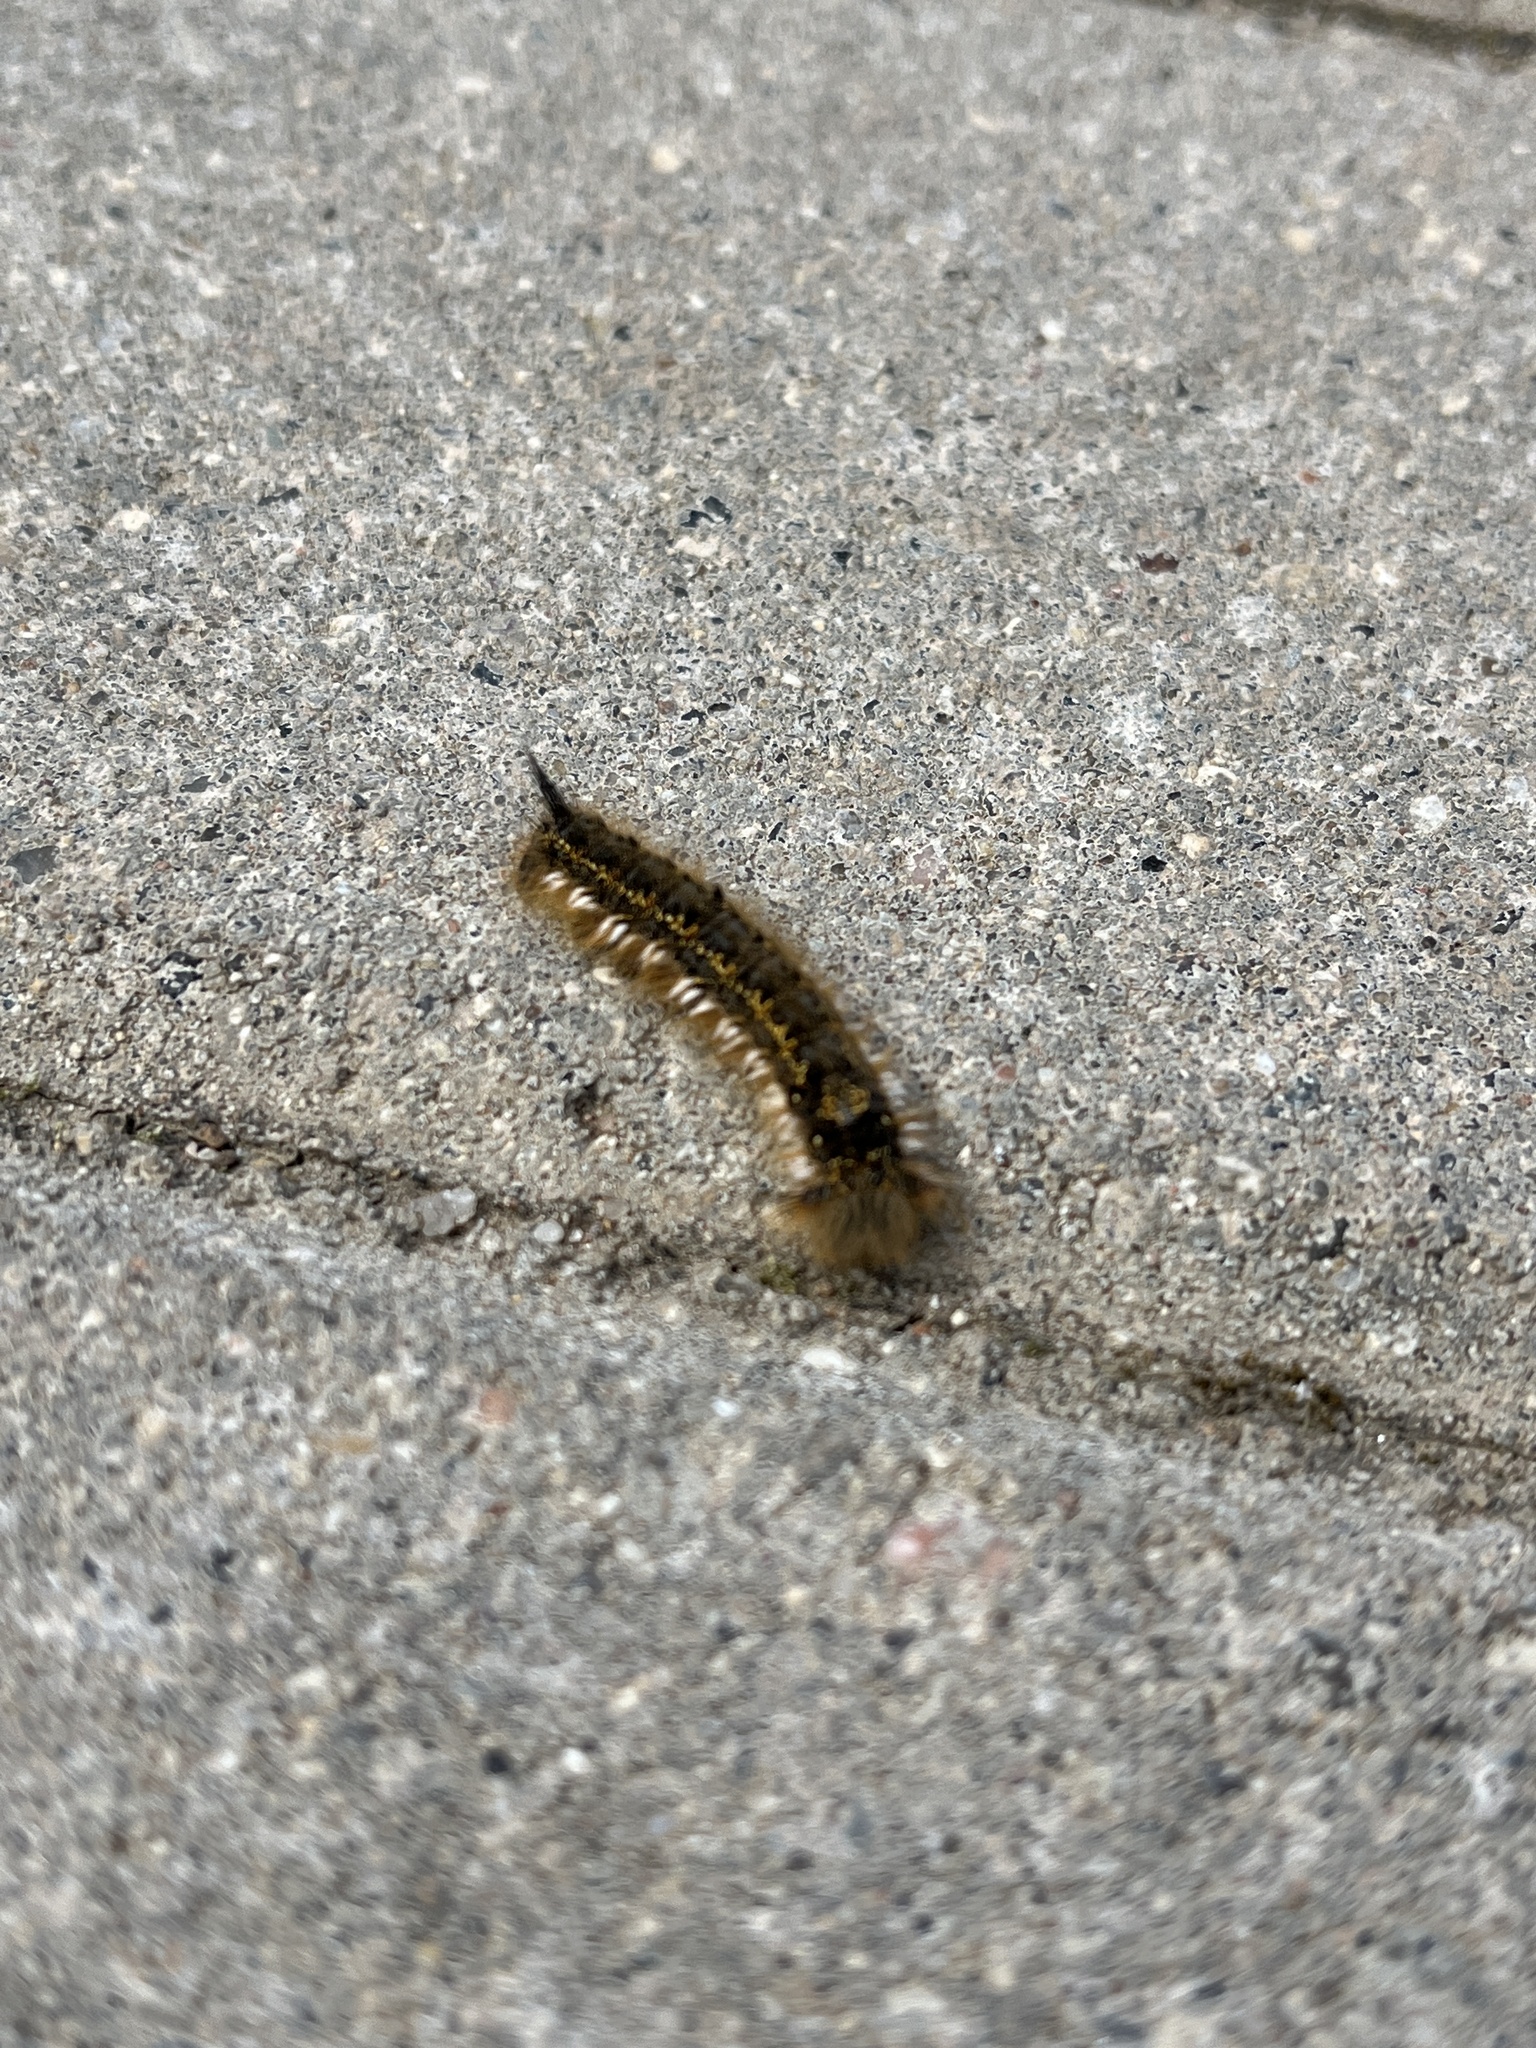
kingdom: Animalia
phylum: Arthropoda
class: Insecta
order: Lepidoptera
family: Lasiocampidae
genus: Euthrix
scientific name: Euthrix potatoria
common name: Drinker
